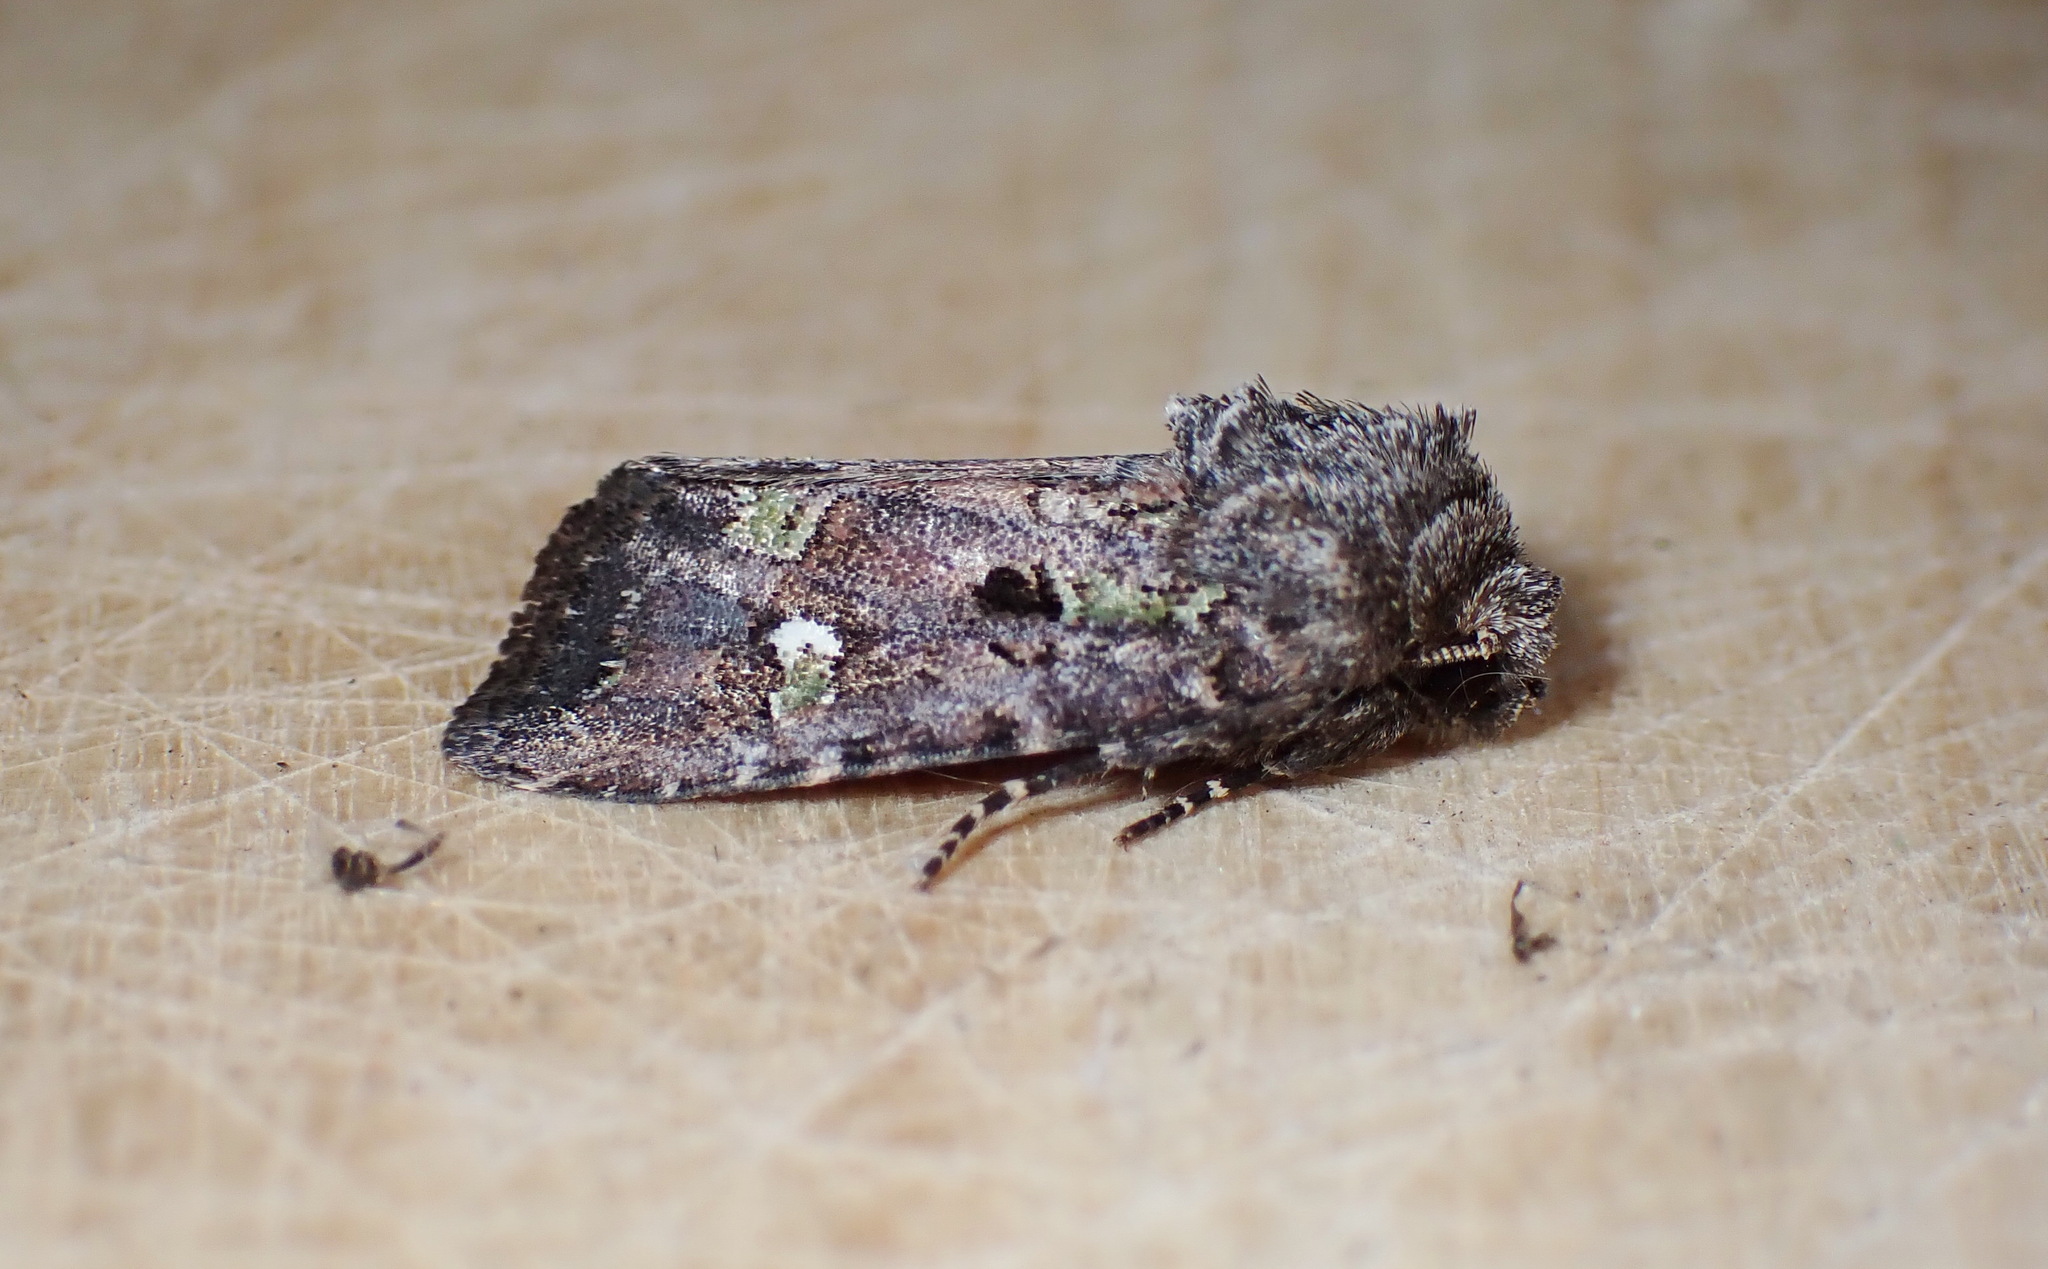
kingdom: Animalia
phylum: Arthropoda
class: Insecta
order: Lepidoptera
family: Noctuidae
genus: Lacinipolia
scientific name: Lacinipolia renigera
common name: Kidney-spotted minor
